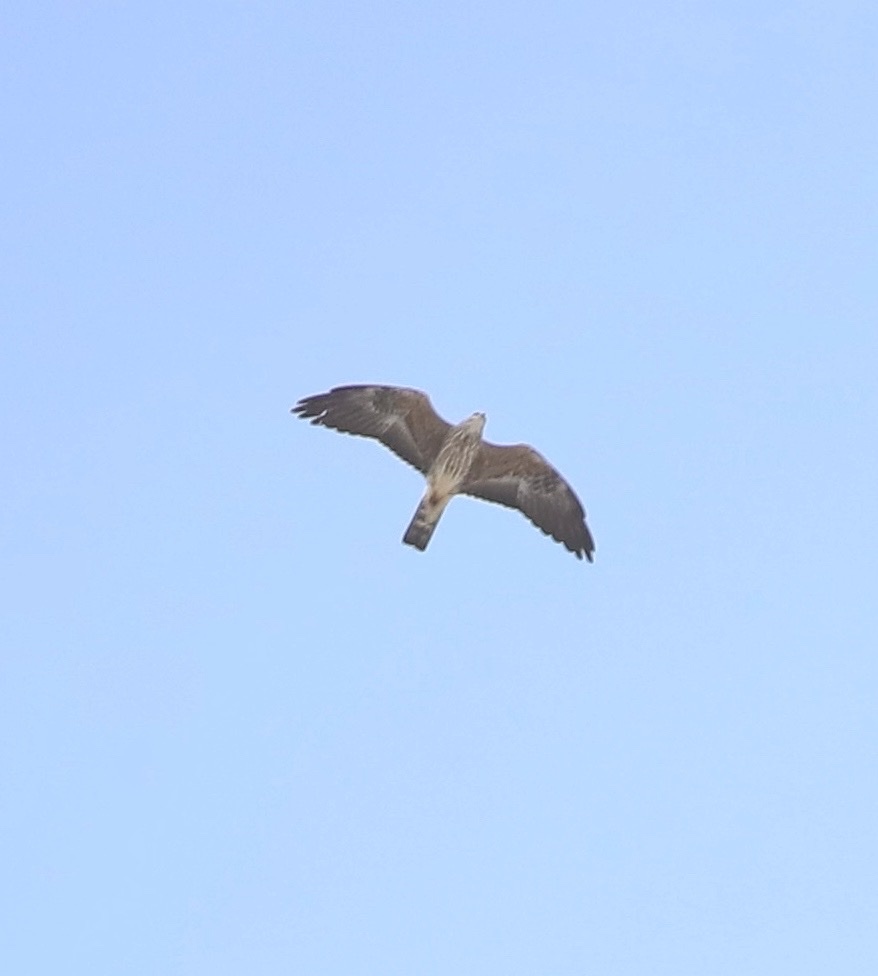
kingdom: Animalia
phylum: Chordata
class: Aves
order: Accipitriformes
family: Accipitridae
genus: Ictinia
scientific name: Ictinia mississippiensis
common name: Mississippi kite
